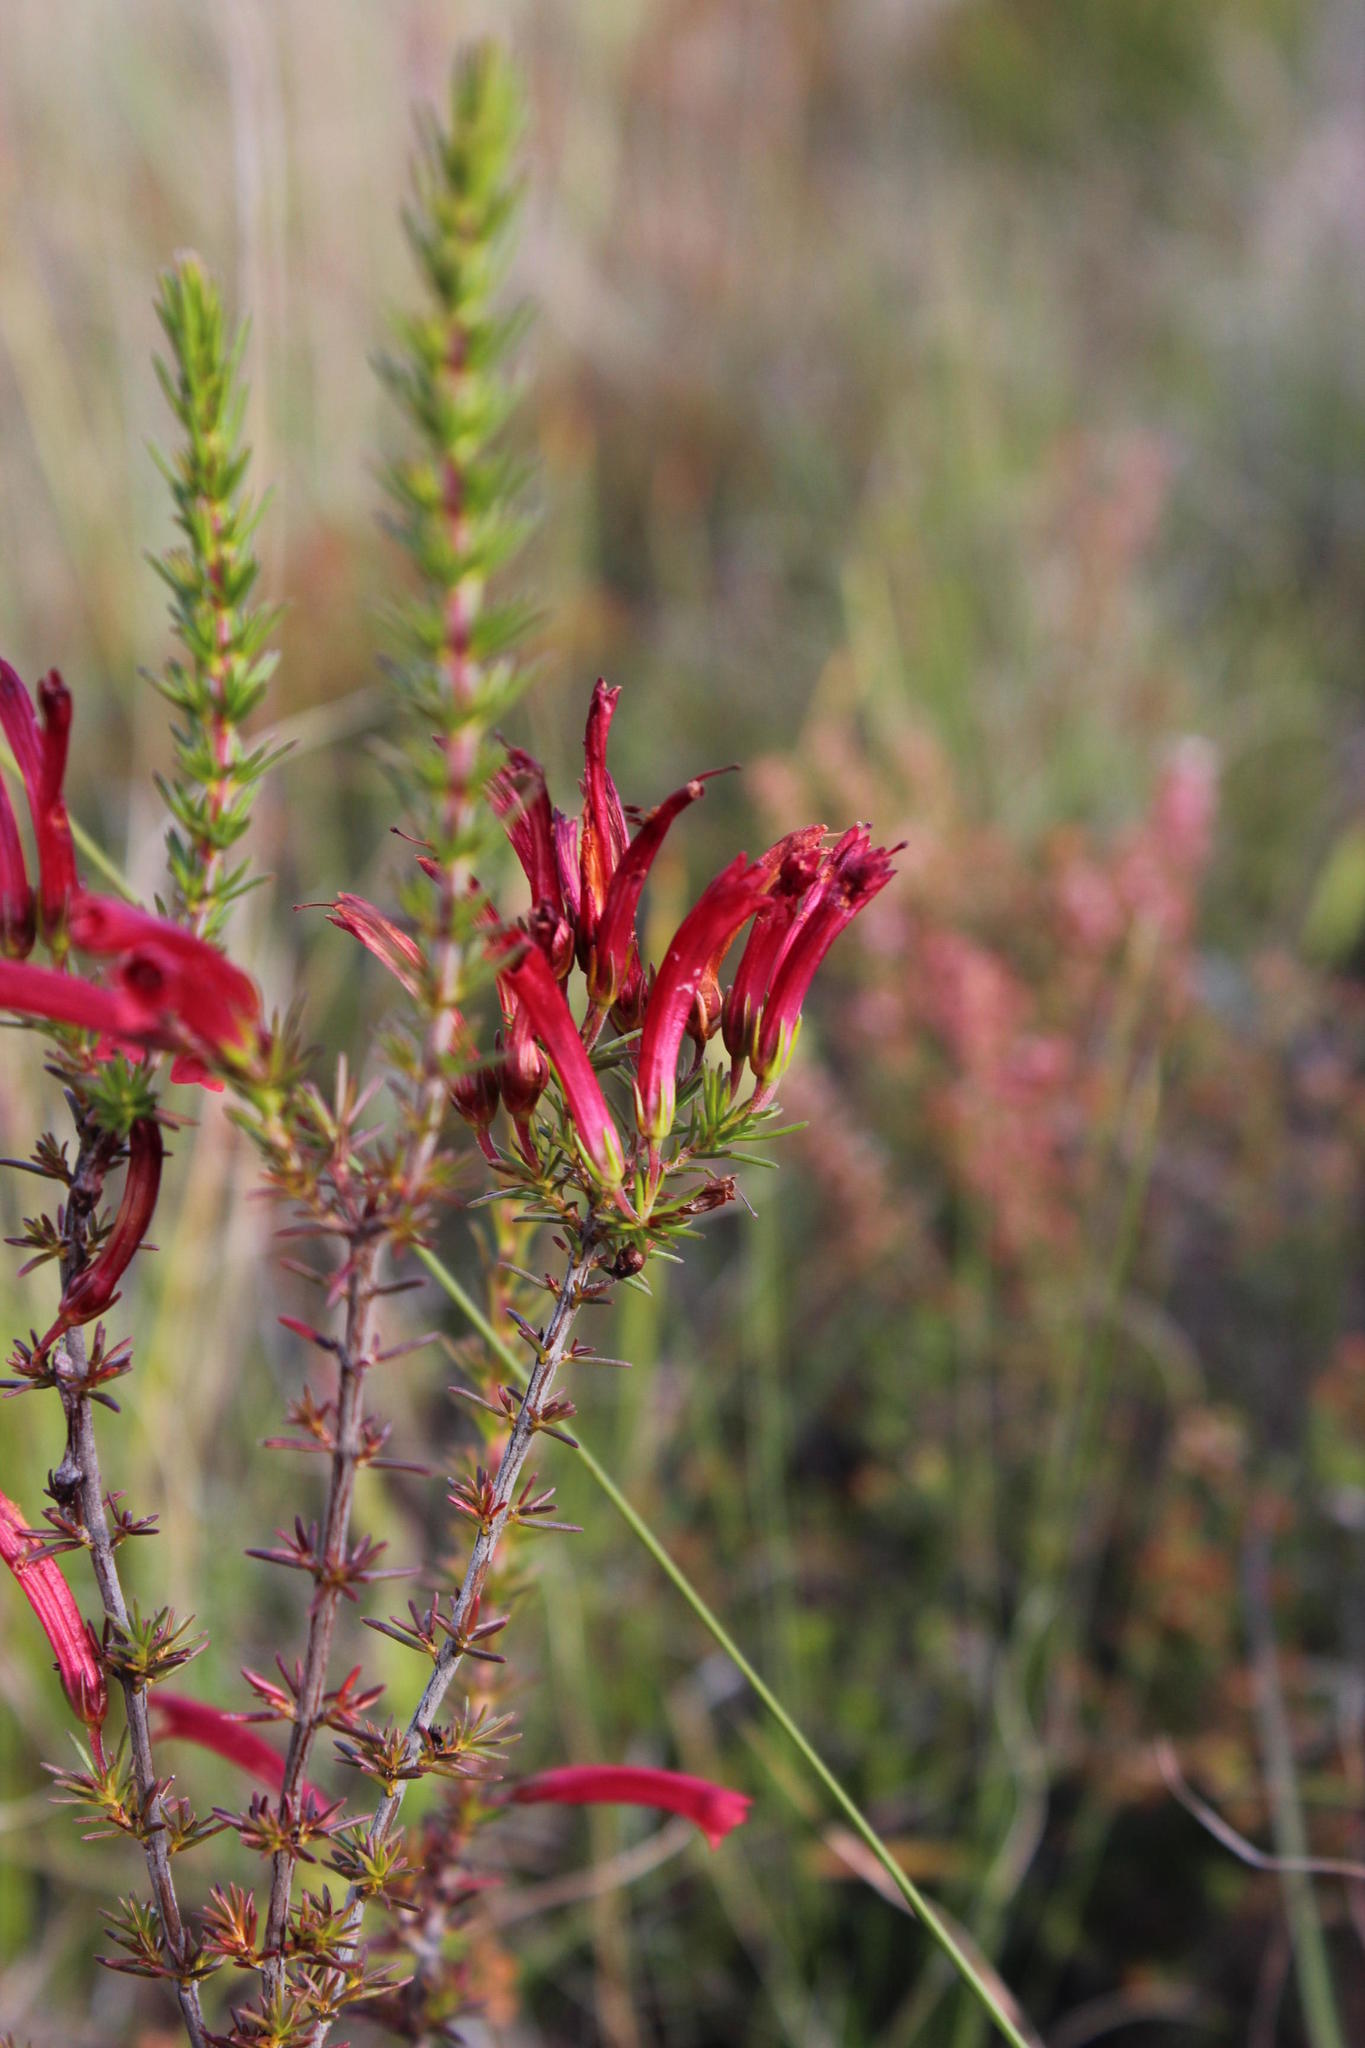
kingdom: Plantae
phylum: Tracheophyta
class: Magnoliopsida
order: Ericales
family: Ericaceae
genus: Erica
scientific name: Erica cruenta
